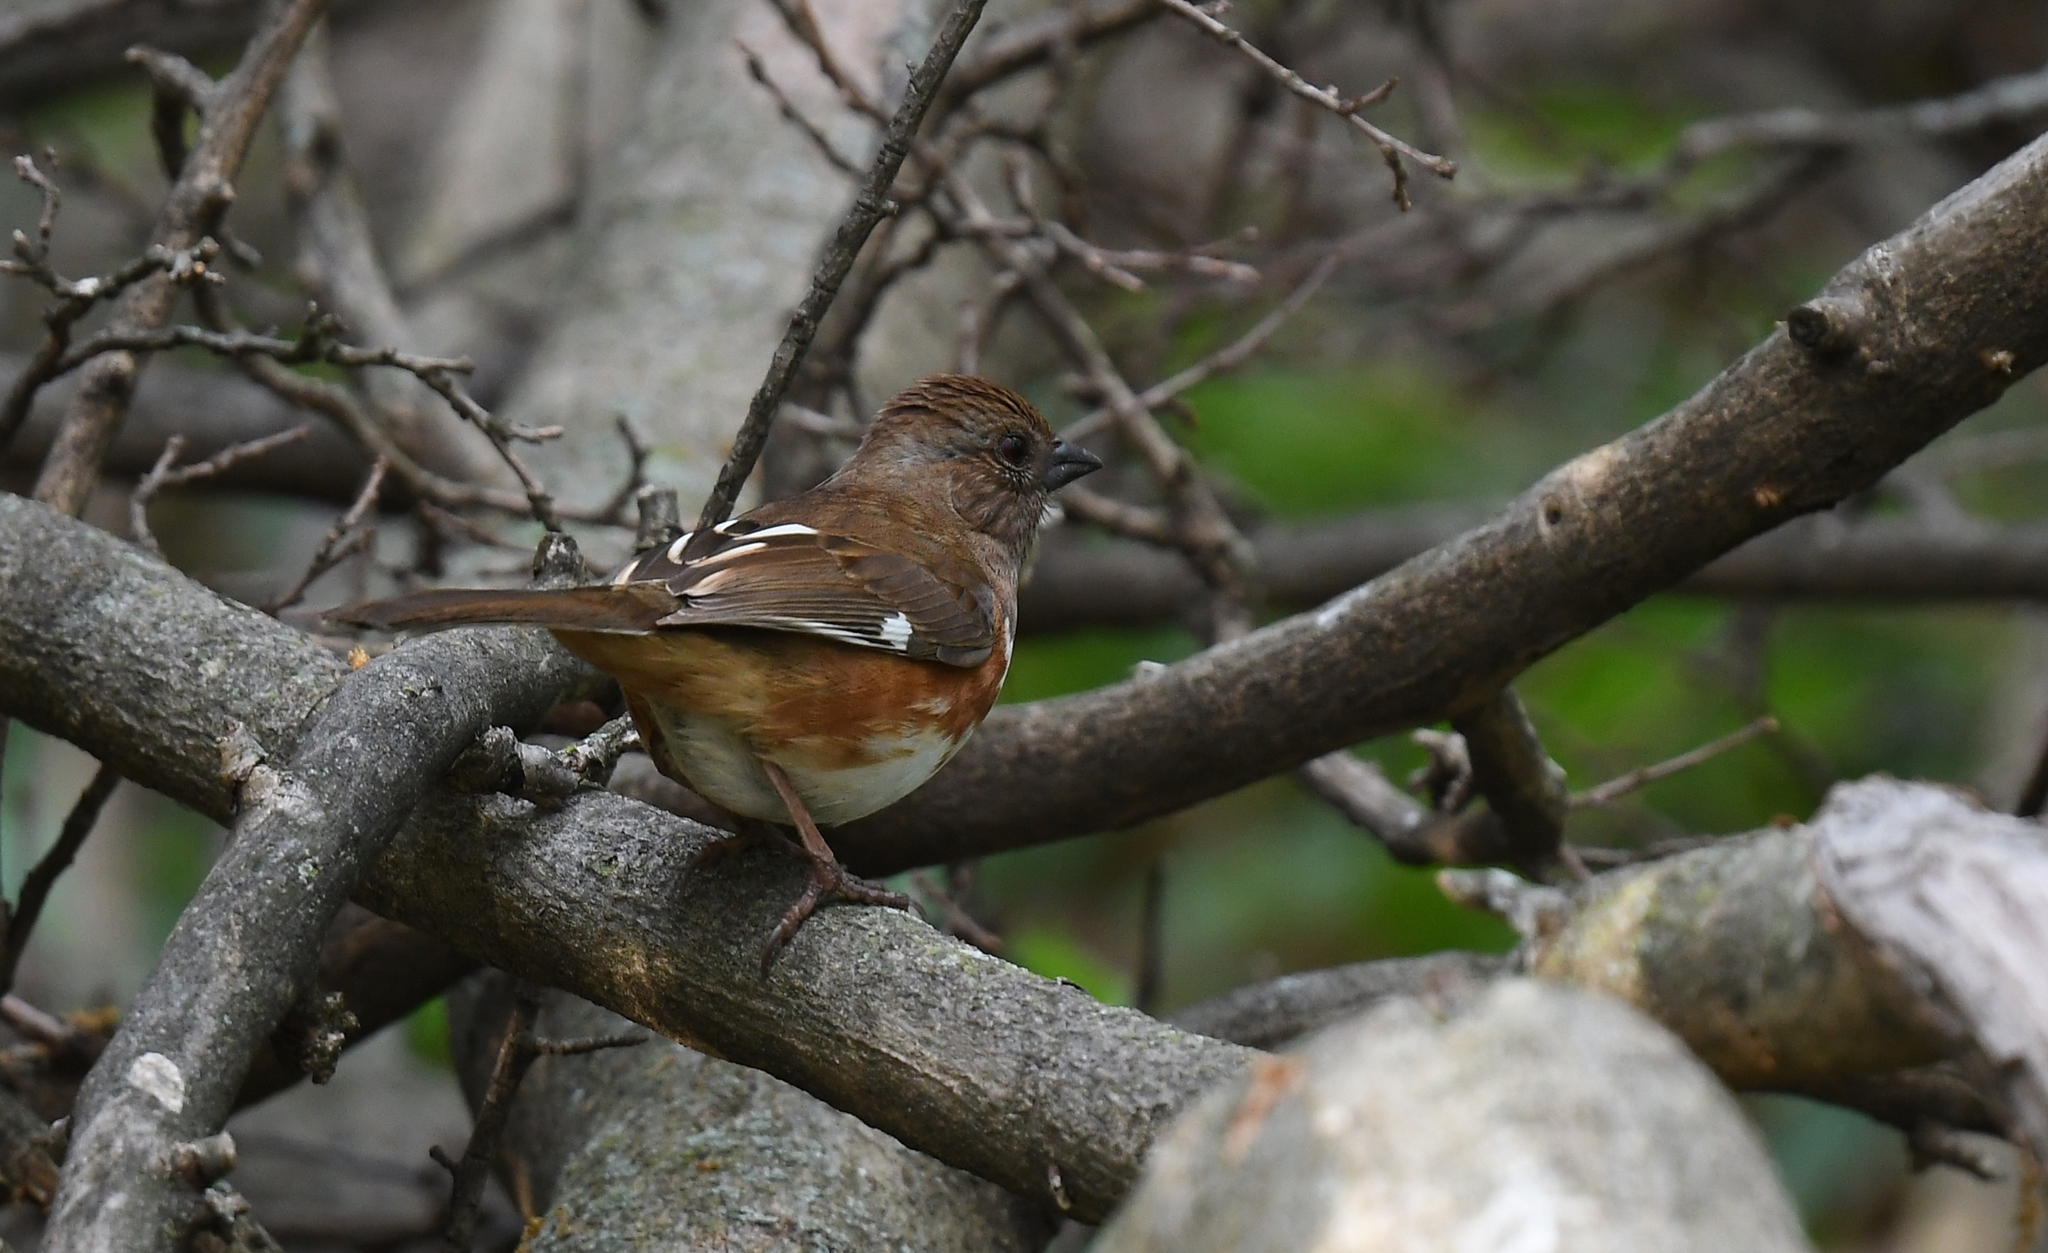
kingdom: Animalia
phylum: Chordata
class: Aves
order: Passeriformes
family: Passerellidae
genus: Pipilo
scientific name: Pipilo erythrophthalmus
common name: Eastern towhee
